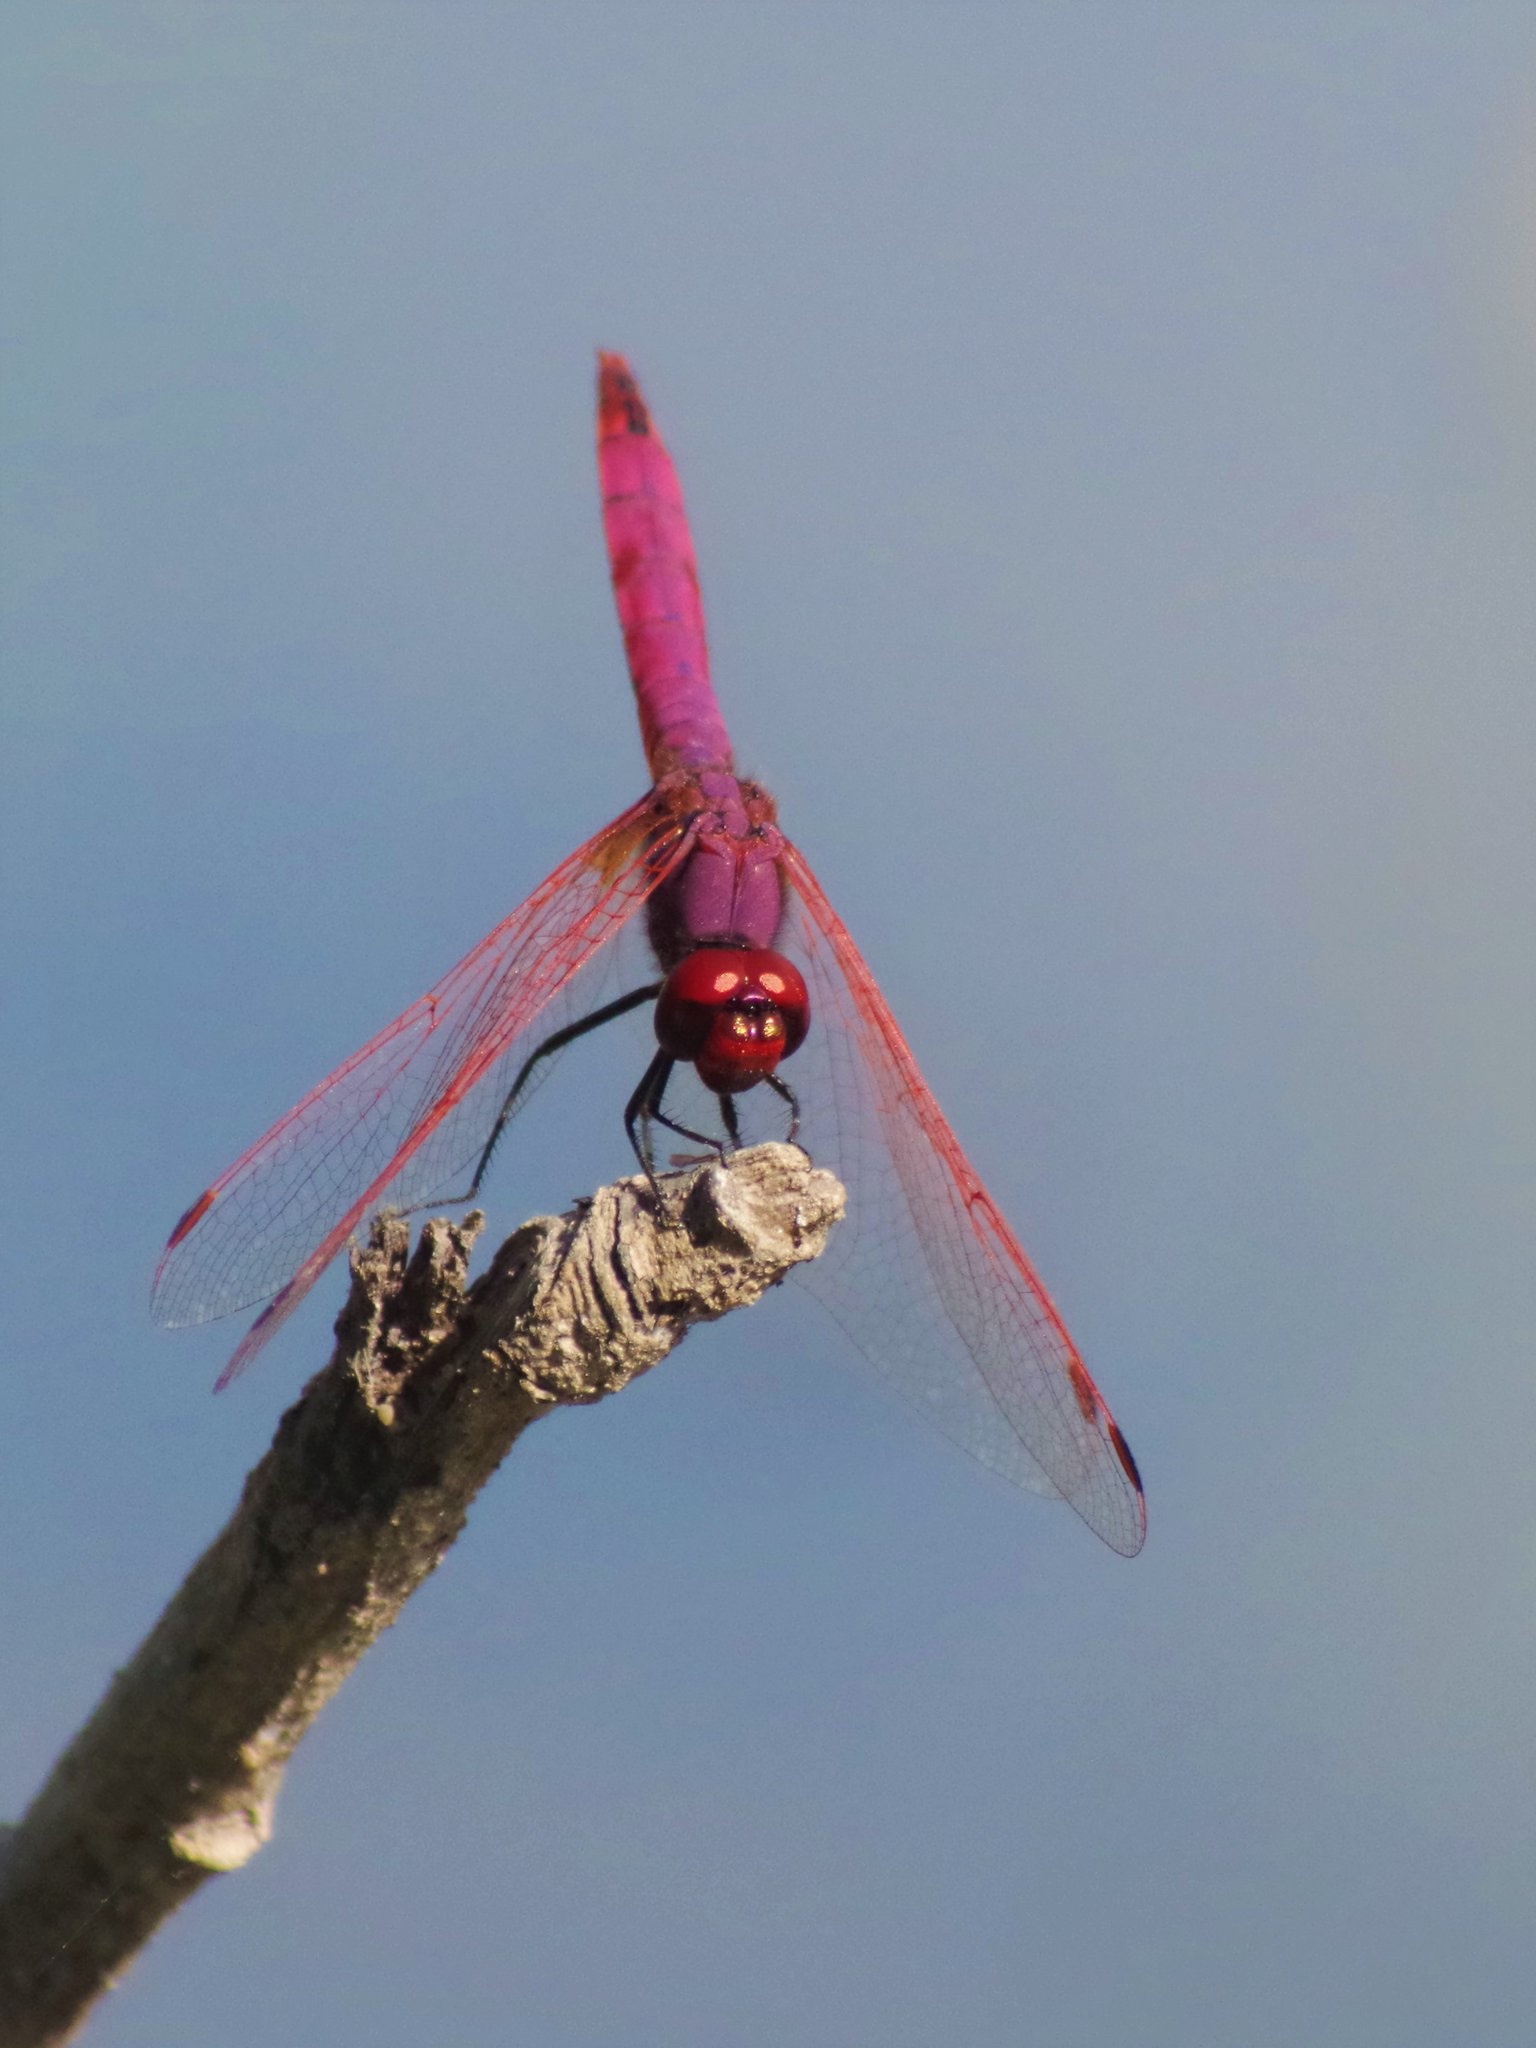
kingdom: Animalia
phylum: Arthropoda
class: Insecta
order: Odonata
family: Libellulidae
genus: Trithemis
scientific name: Trithemis annulata
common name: Violet dropwing
